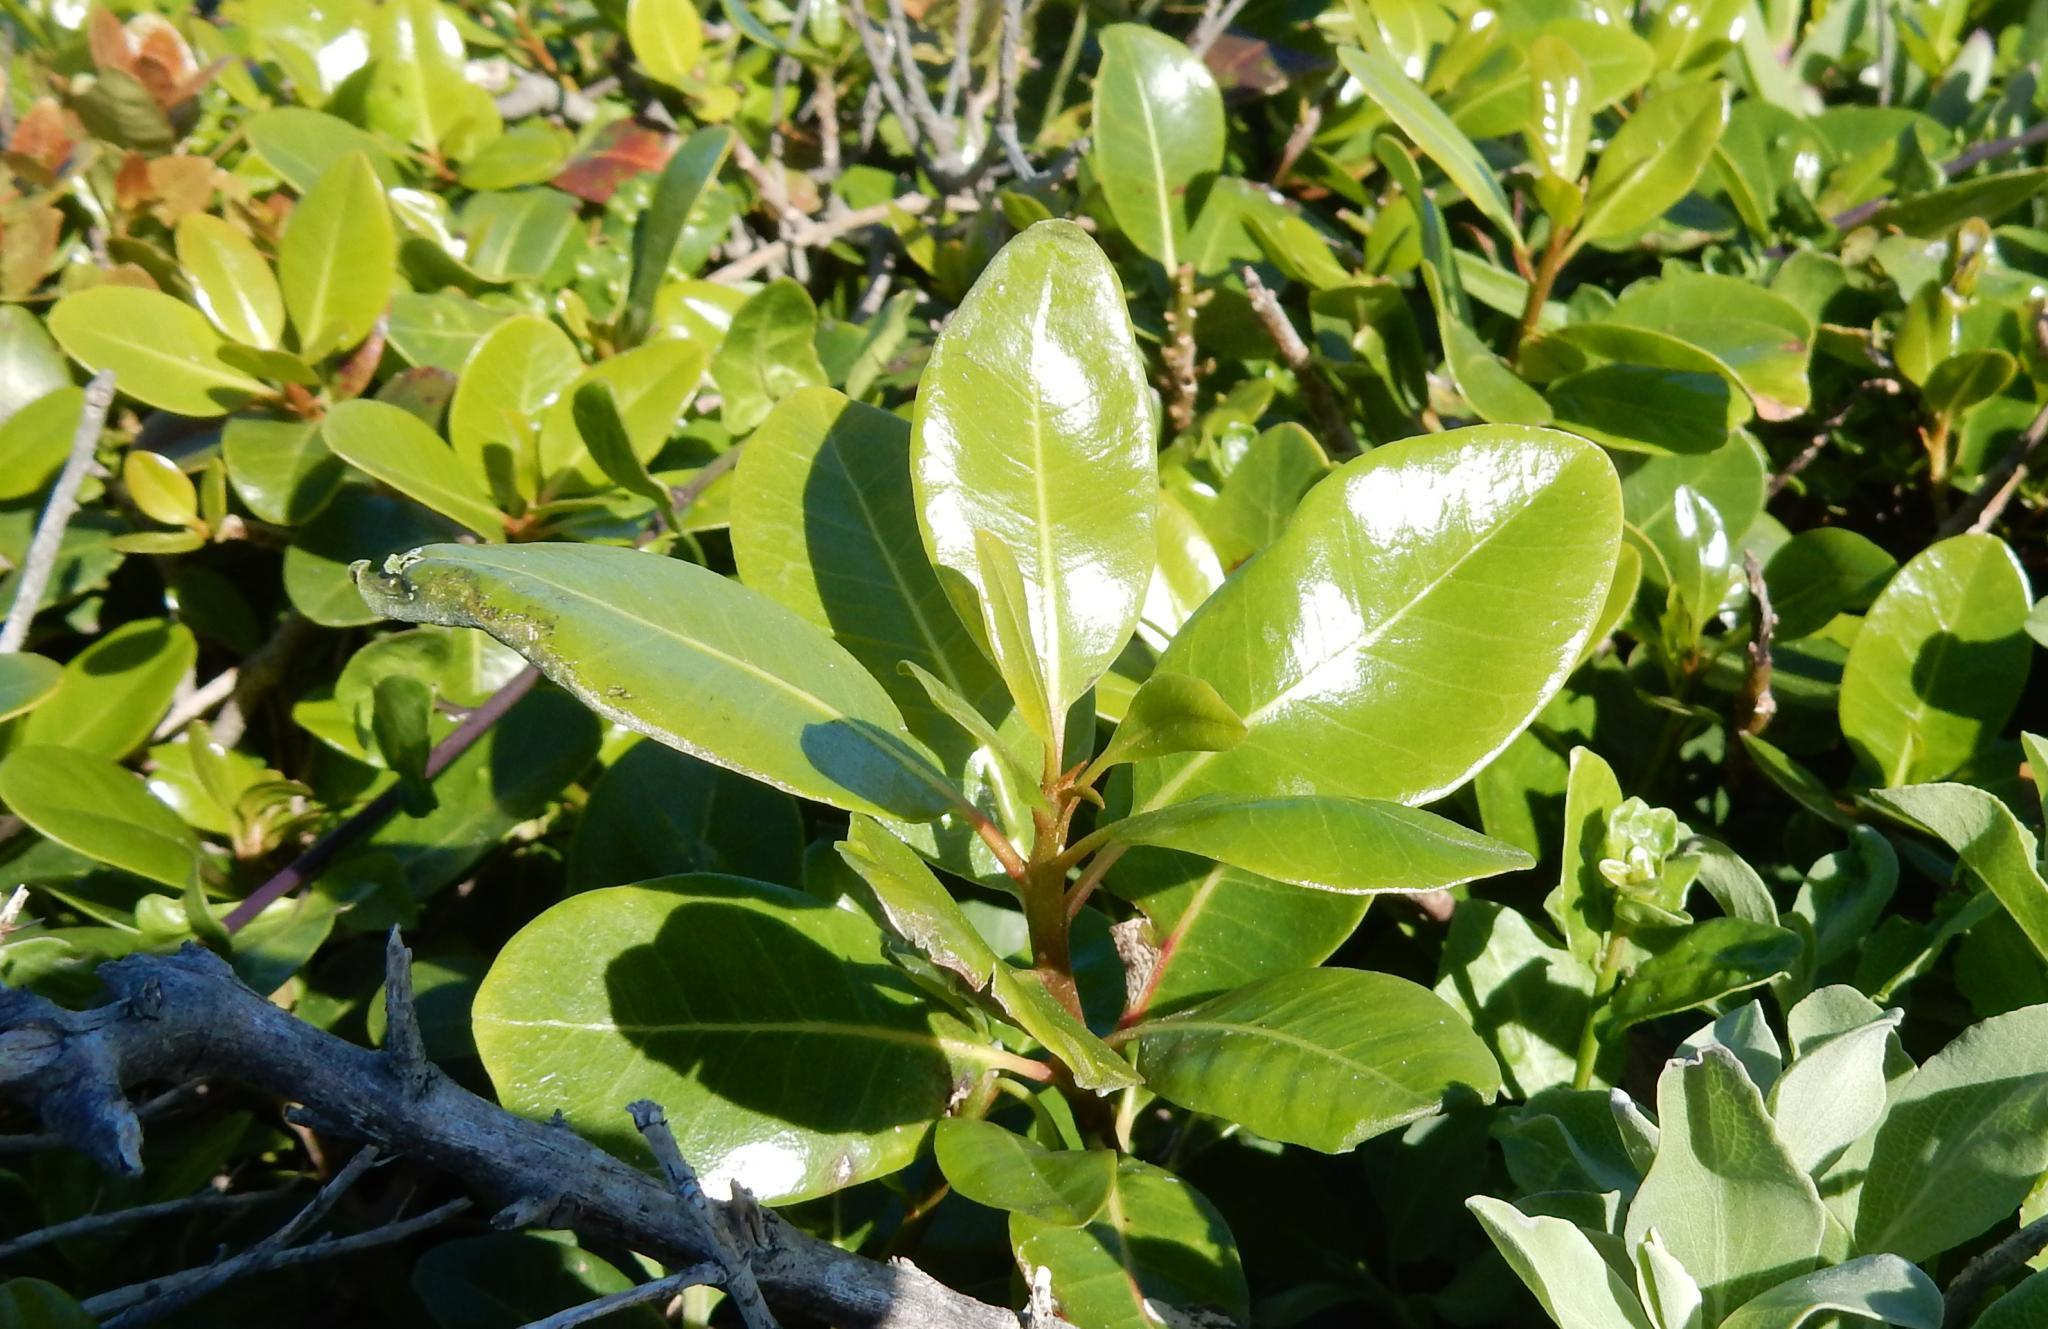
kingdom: Plantae
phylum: Tracheophyta
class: Magnoliopsida
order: Ericales
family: Sapotaceae
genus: Sideroxylon
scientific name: Sideroxylon inerme
